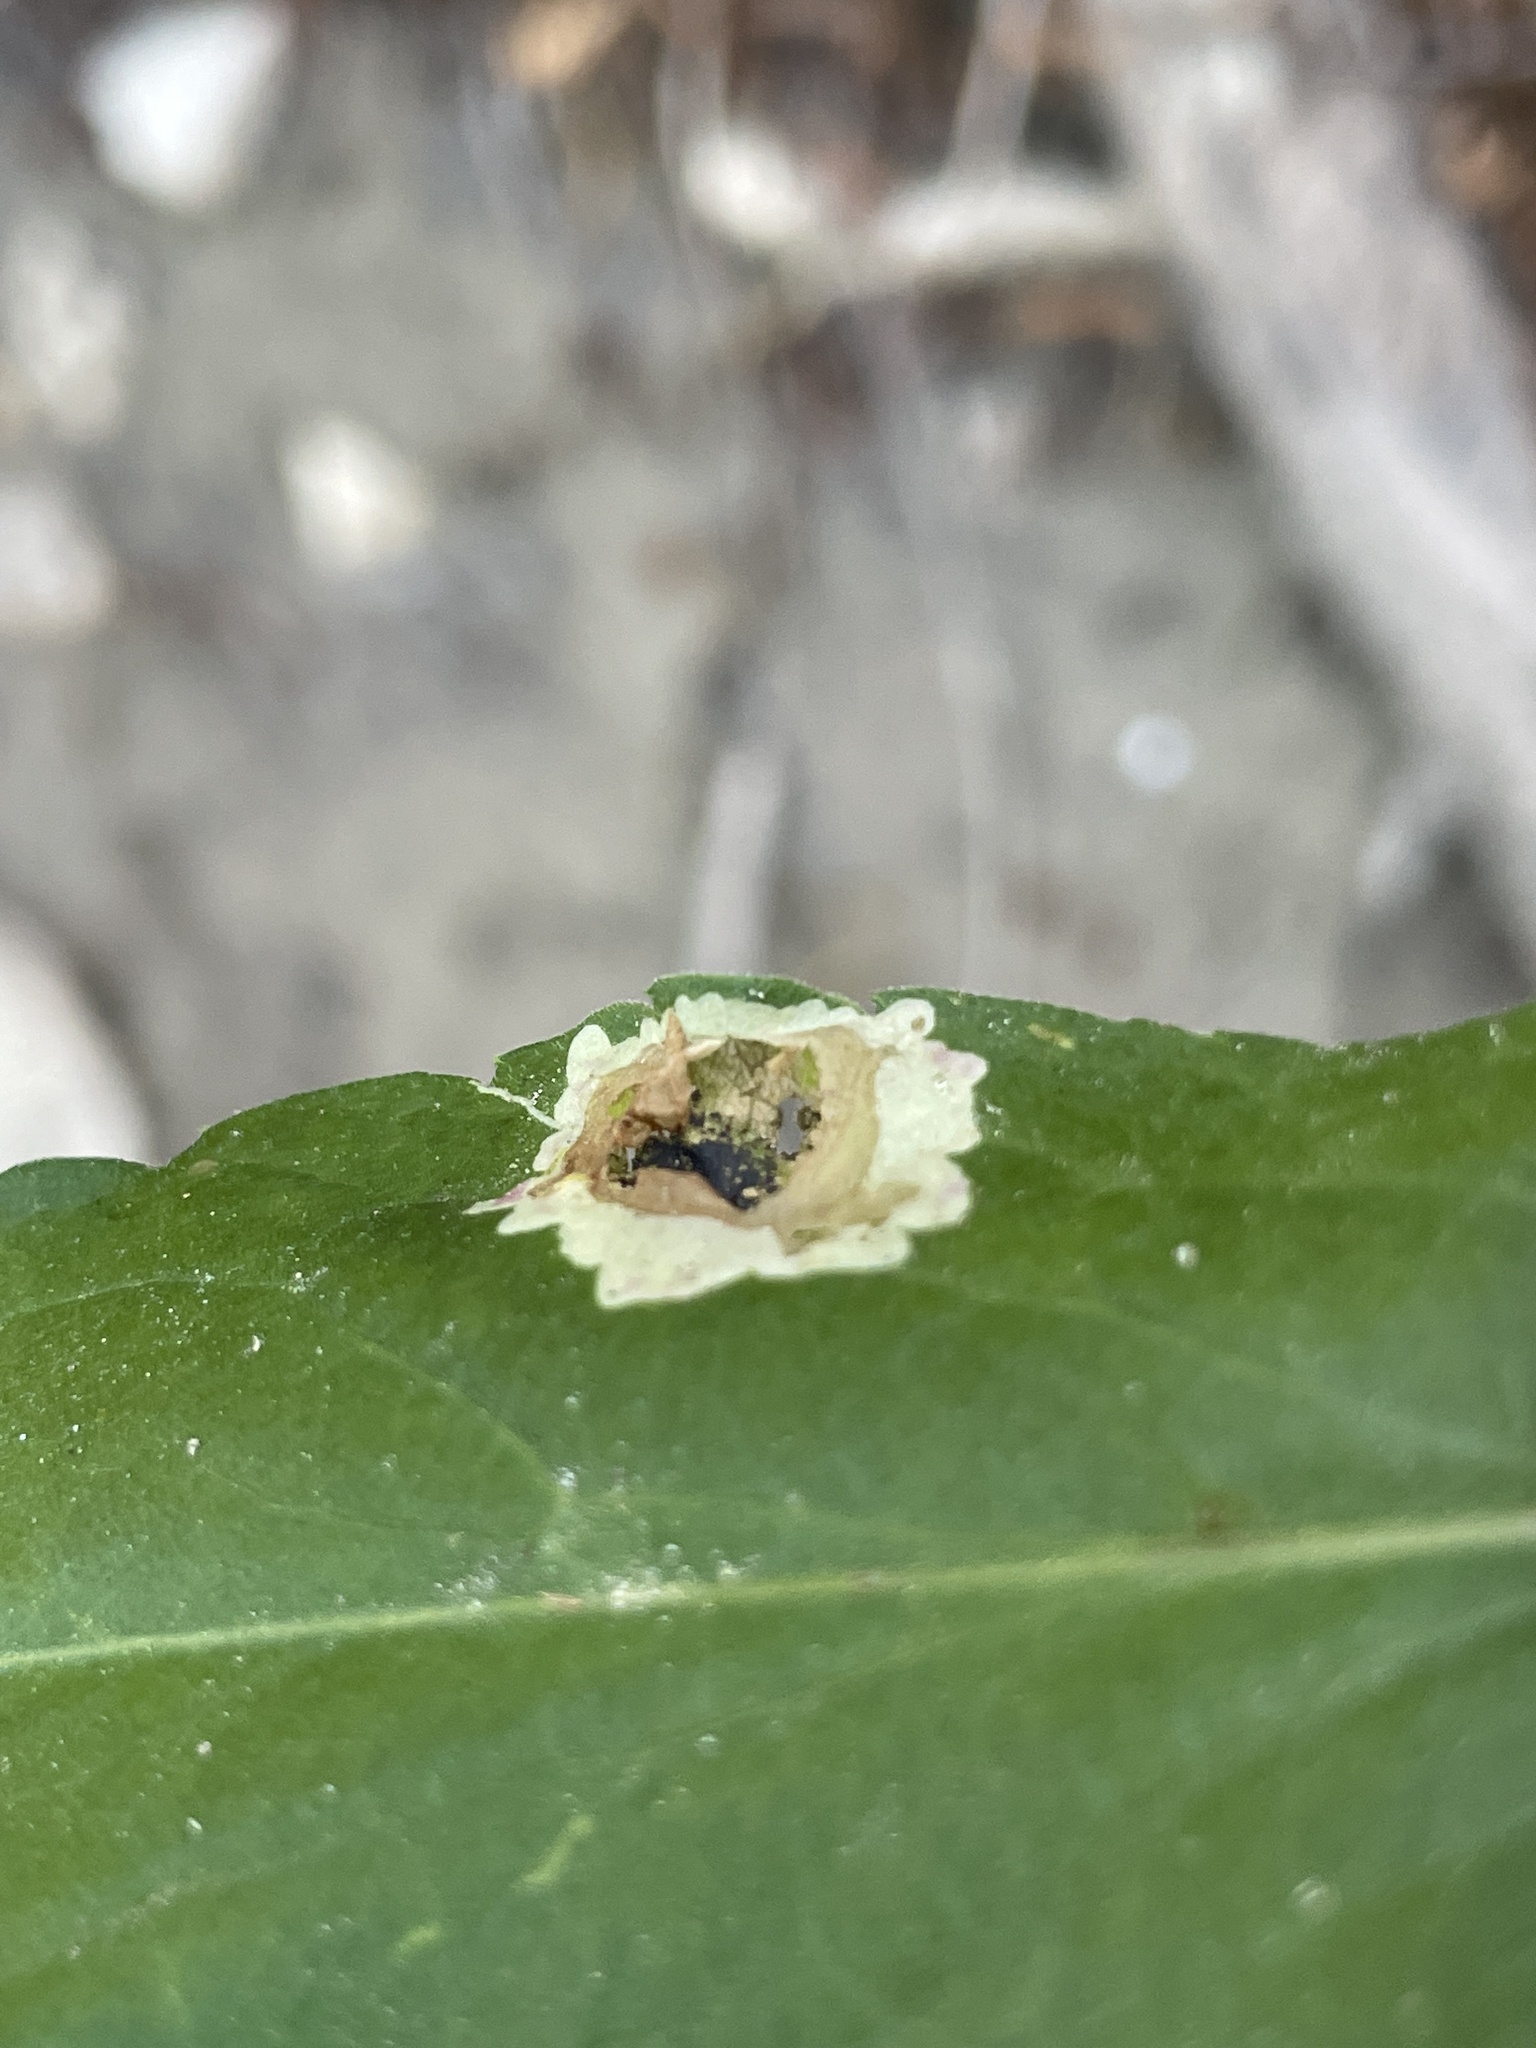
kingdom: Animalia
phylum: Arthropoda
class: Insecta
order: Diptera
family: Agromyzidae
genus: Calycomyza
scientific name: Calycomyza platyptera
